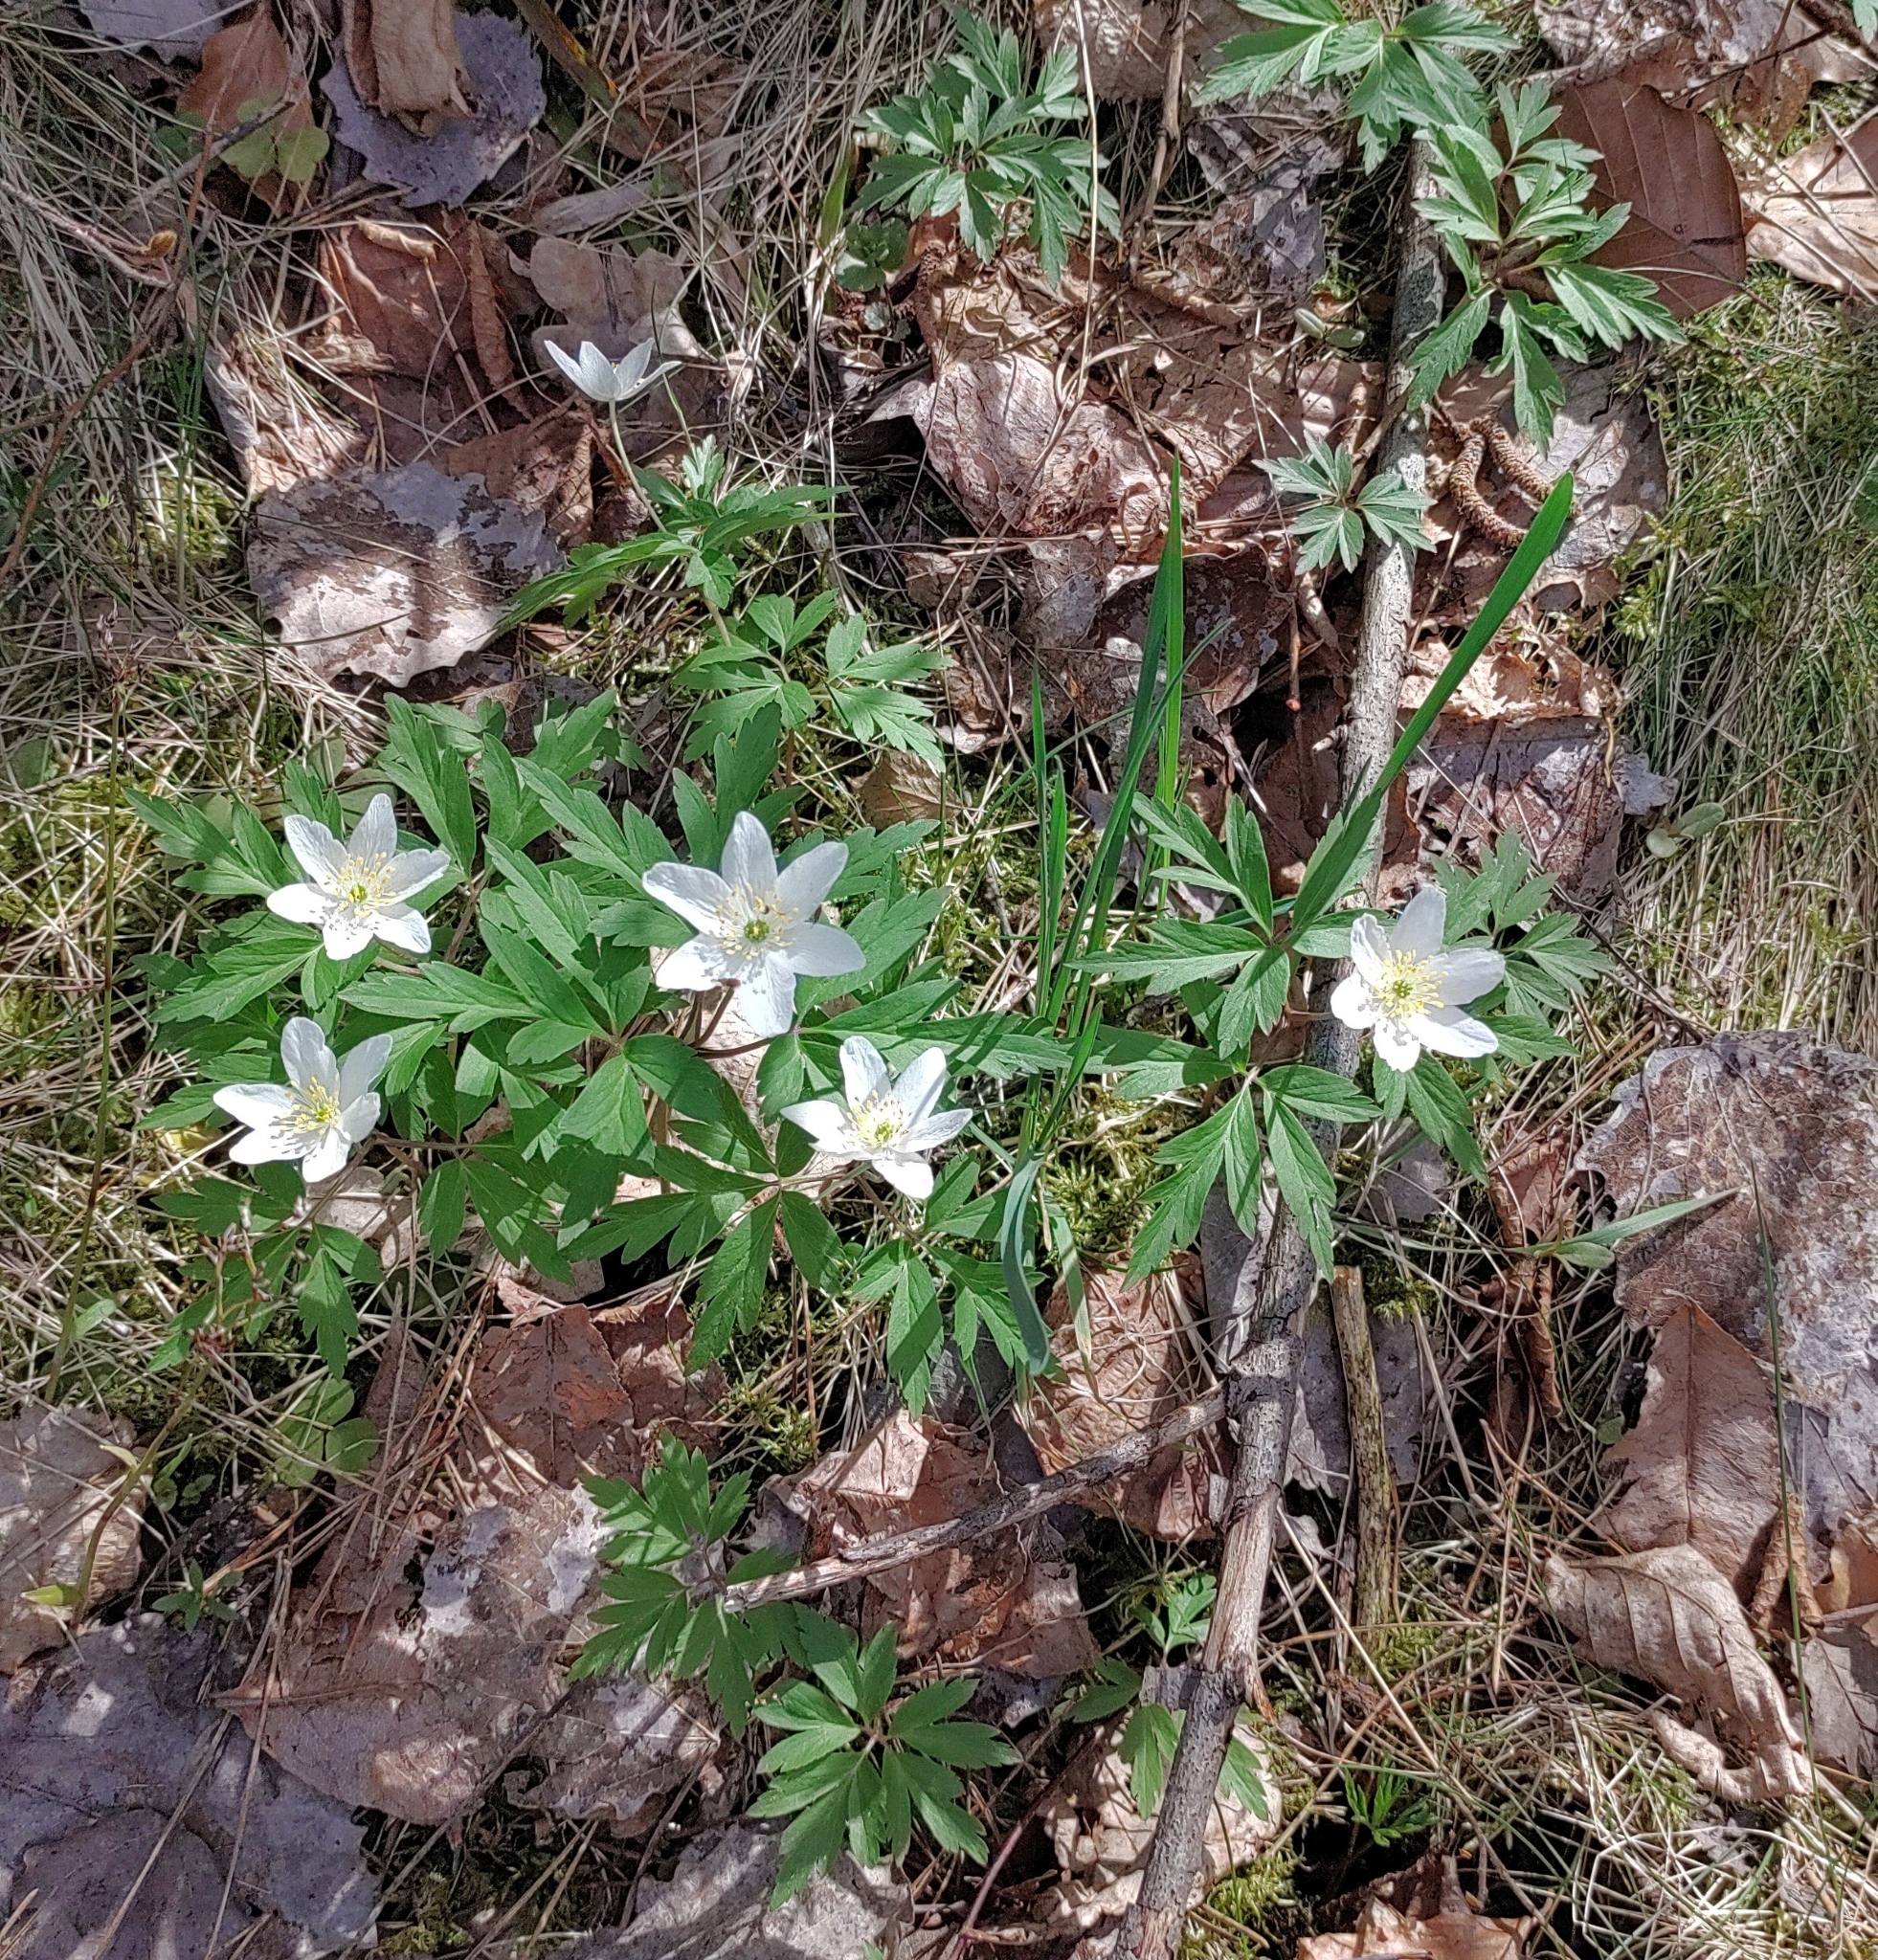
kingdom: Plantae
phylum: Tracheophyta
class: Magnoliopsida
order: Ranunculales
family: Ranunculaceae
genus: Anemone
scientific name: Anemone nemorosa
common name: Wood anemone
